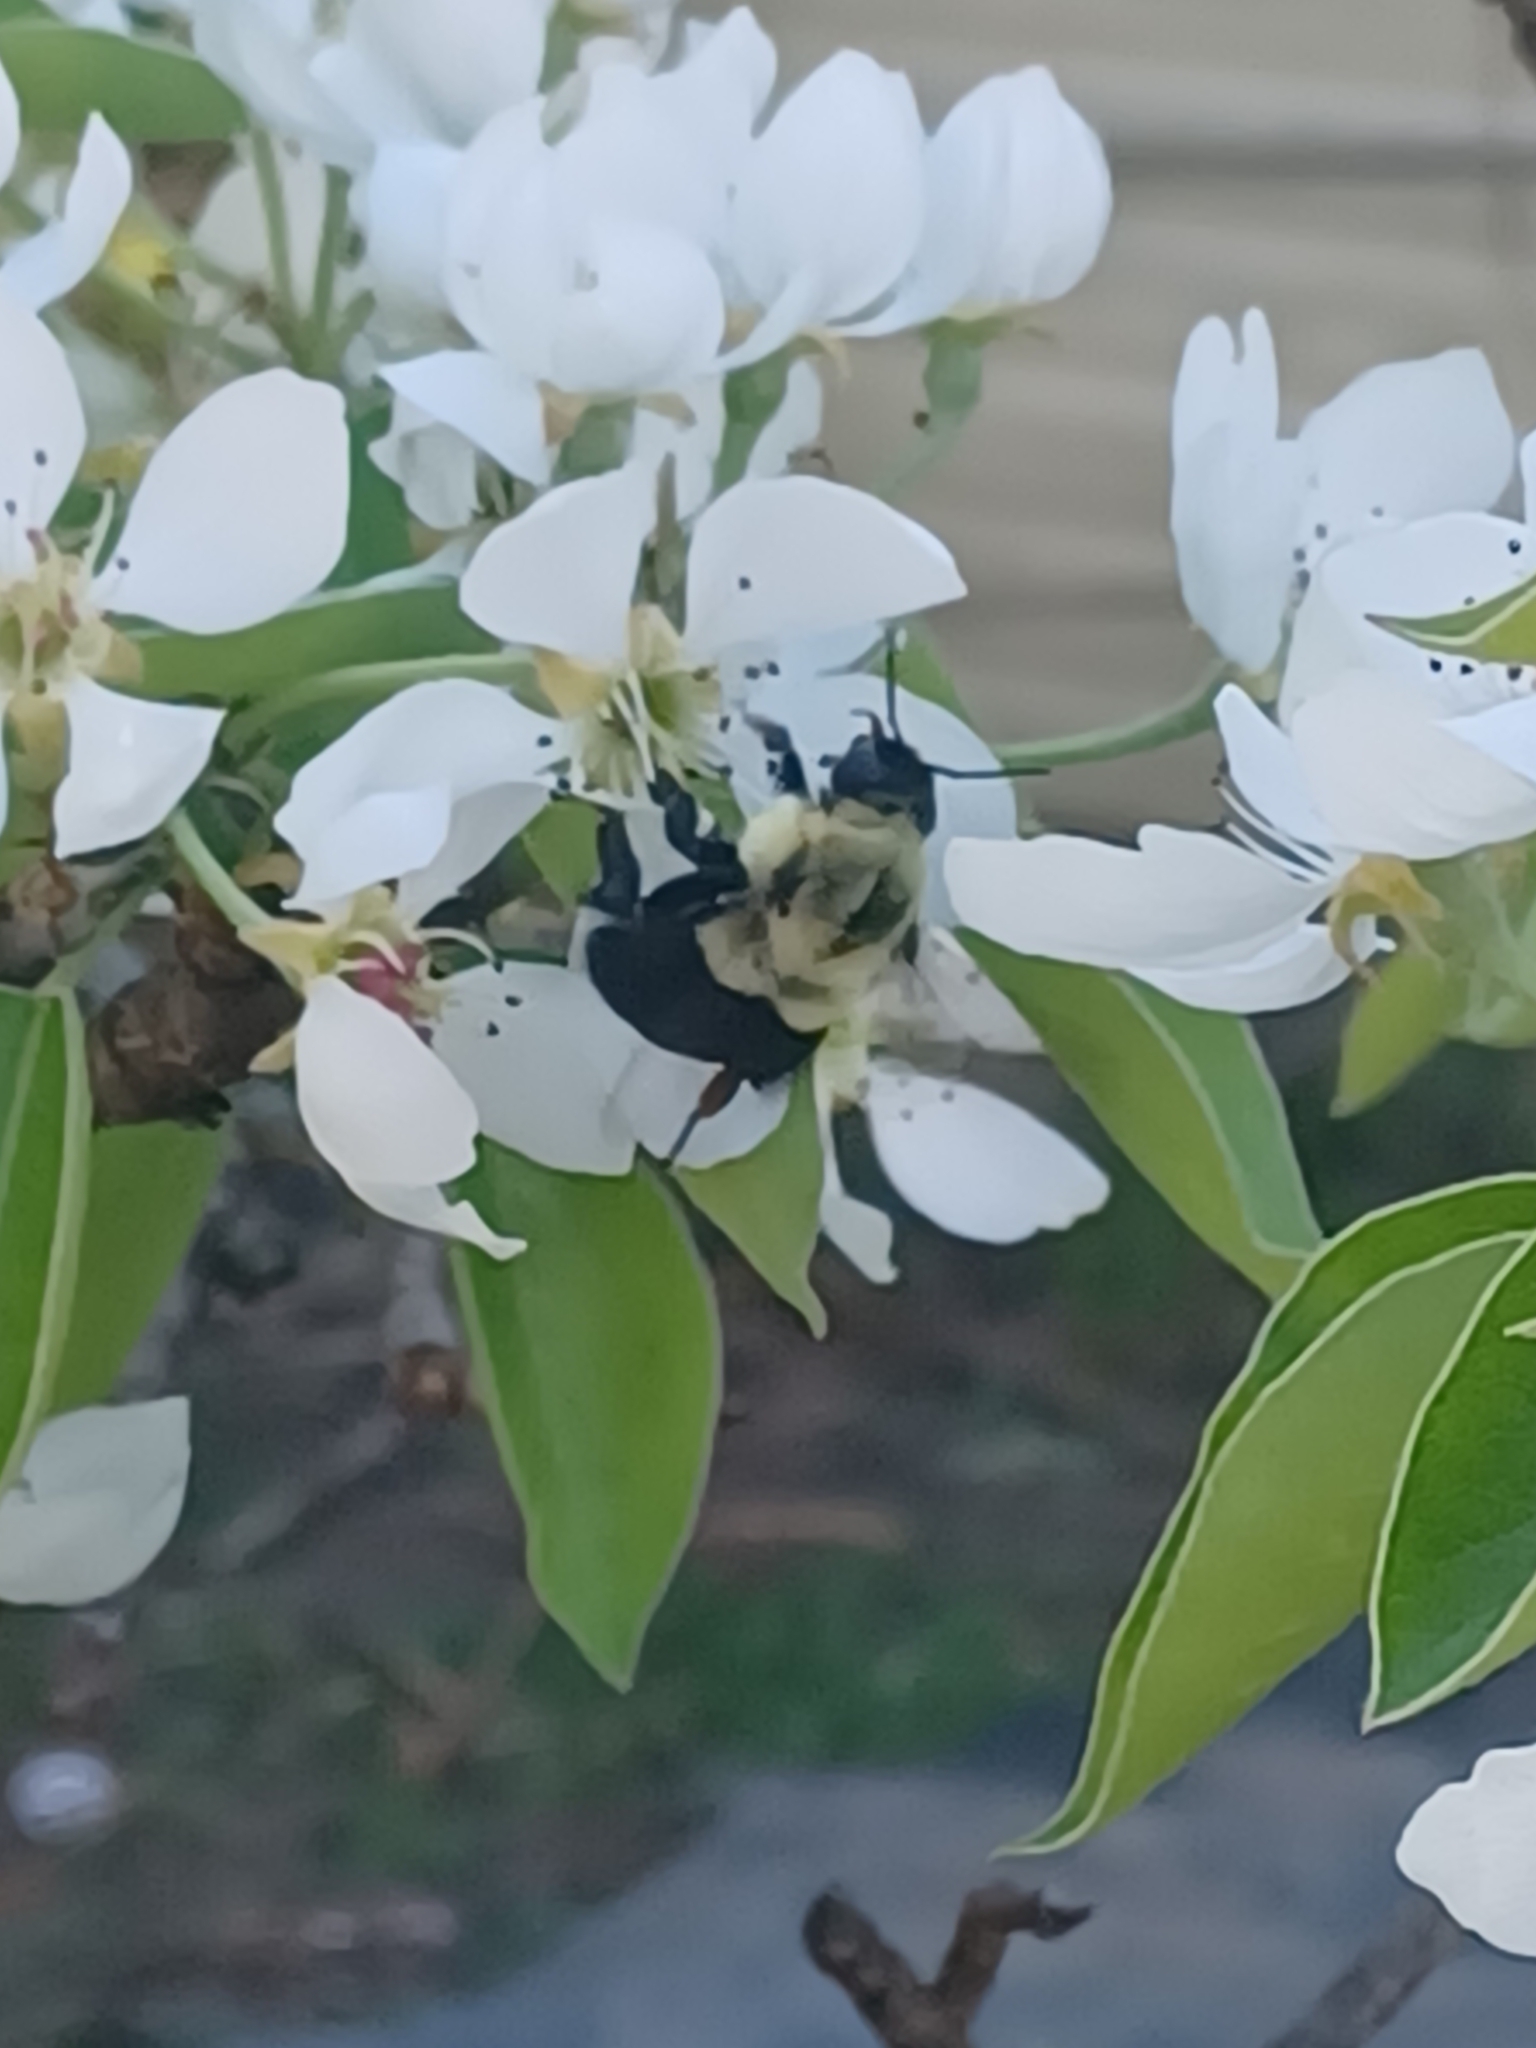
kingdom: Animalia
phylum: Arthropoda
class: Insecta
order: Hymenoptera
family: Apidae
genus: Bombus
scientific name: Bombus impatiens
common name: Common eastern bumble bee
